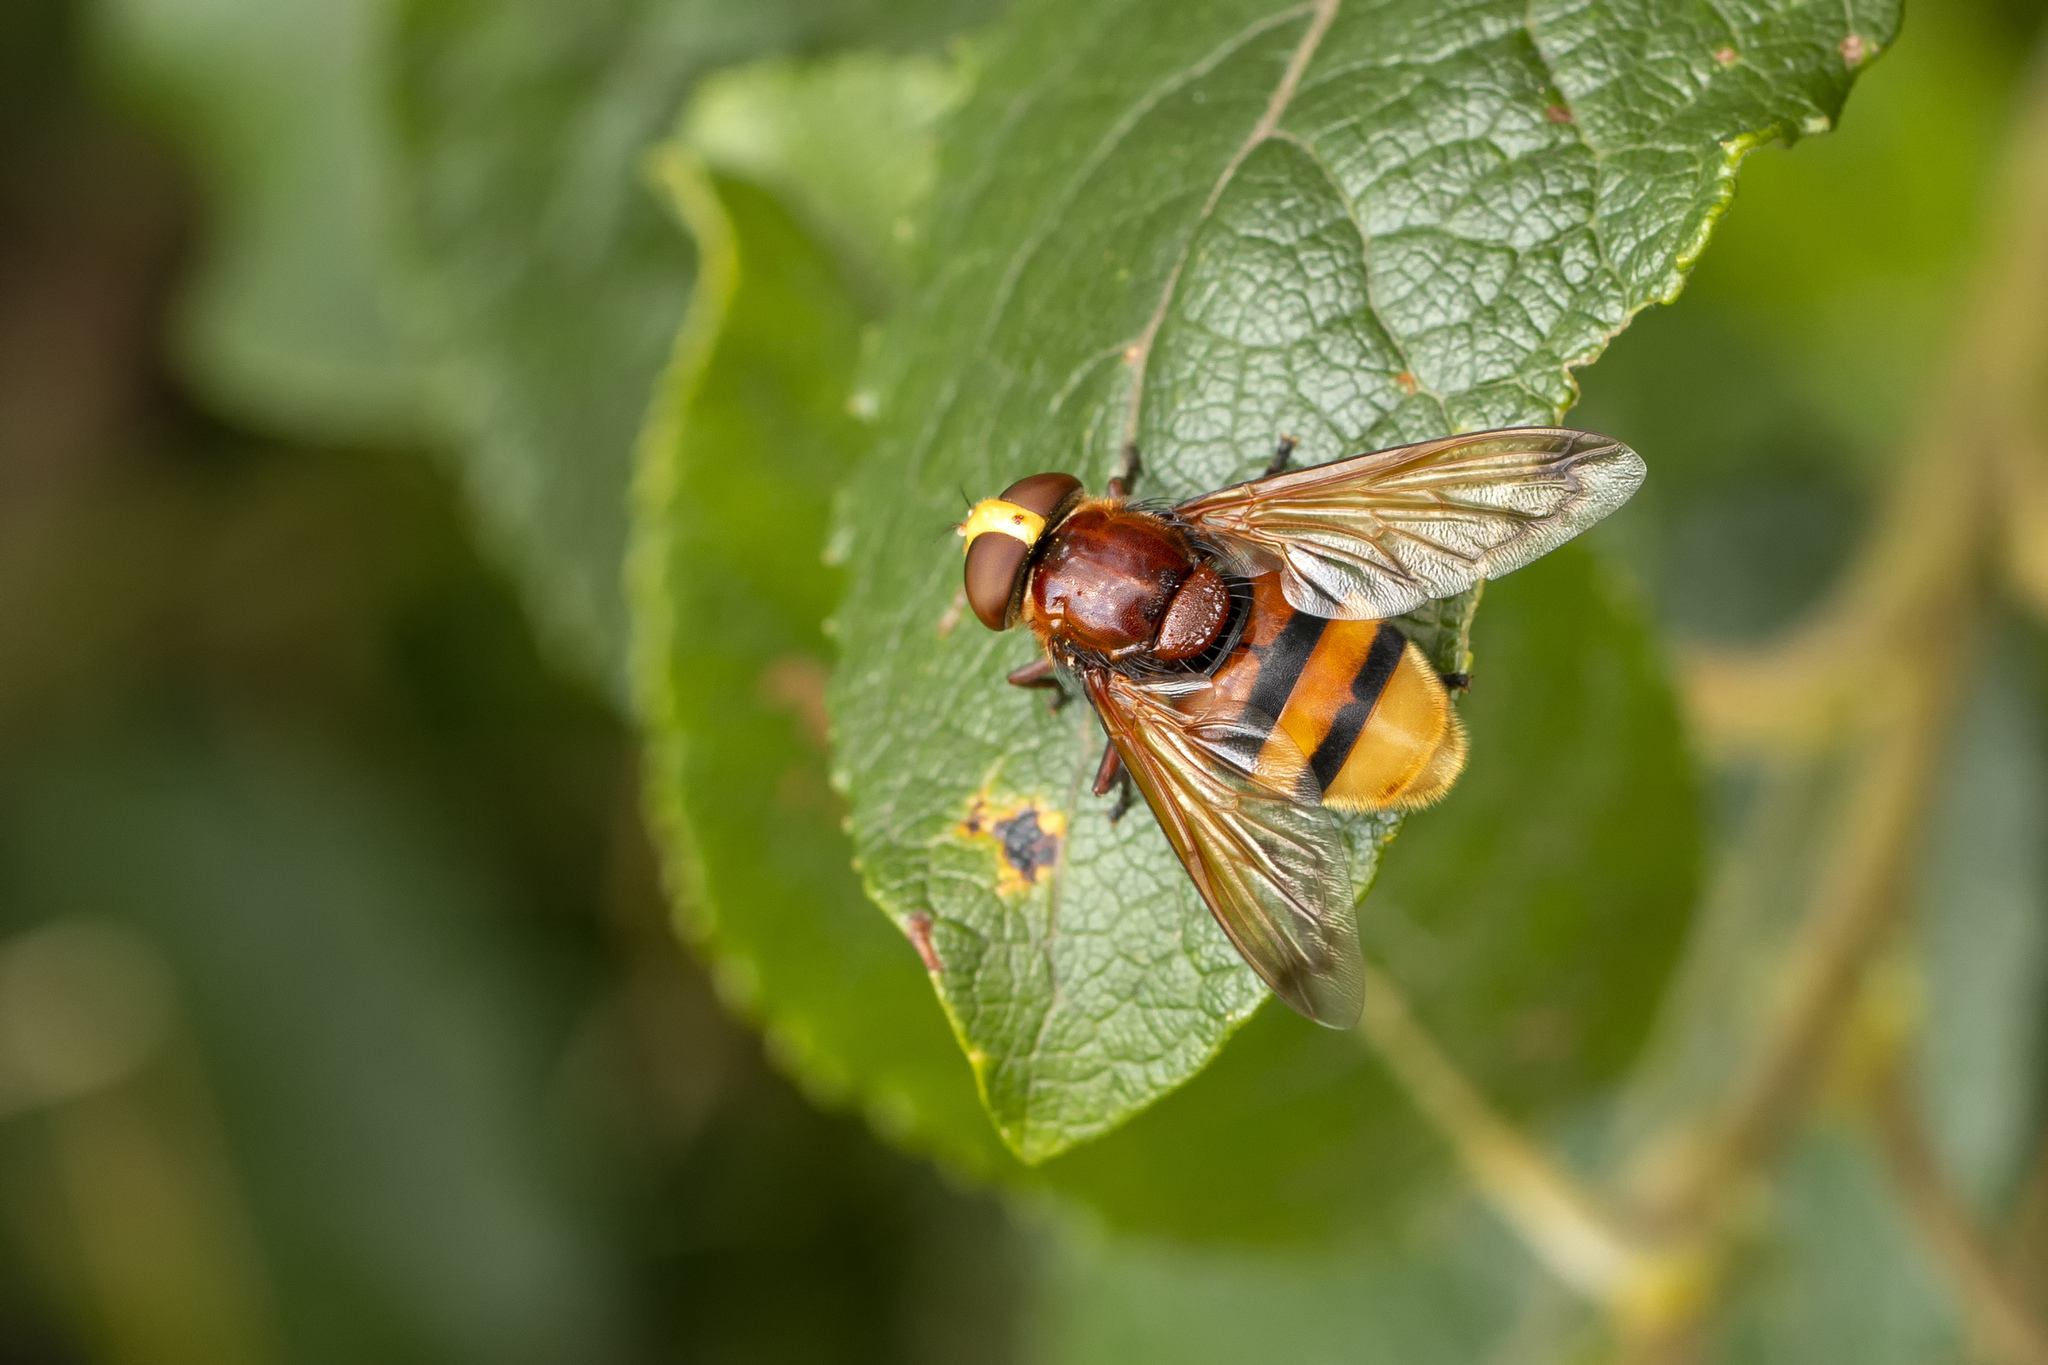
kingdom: Animalia
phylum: Arthropoda
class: Insecta
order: Diptera
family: Syrphidae
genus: Volucella
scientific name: Volucella zonaria
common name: Hornet hoverfly
